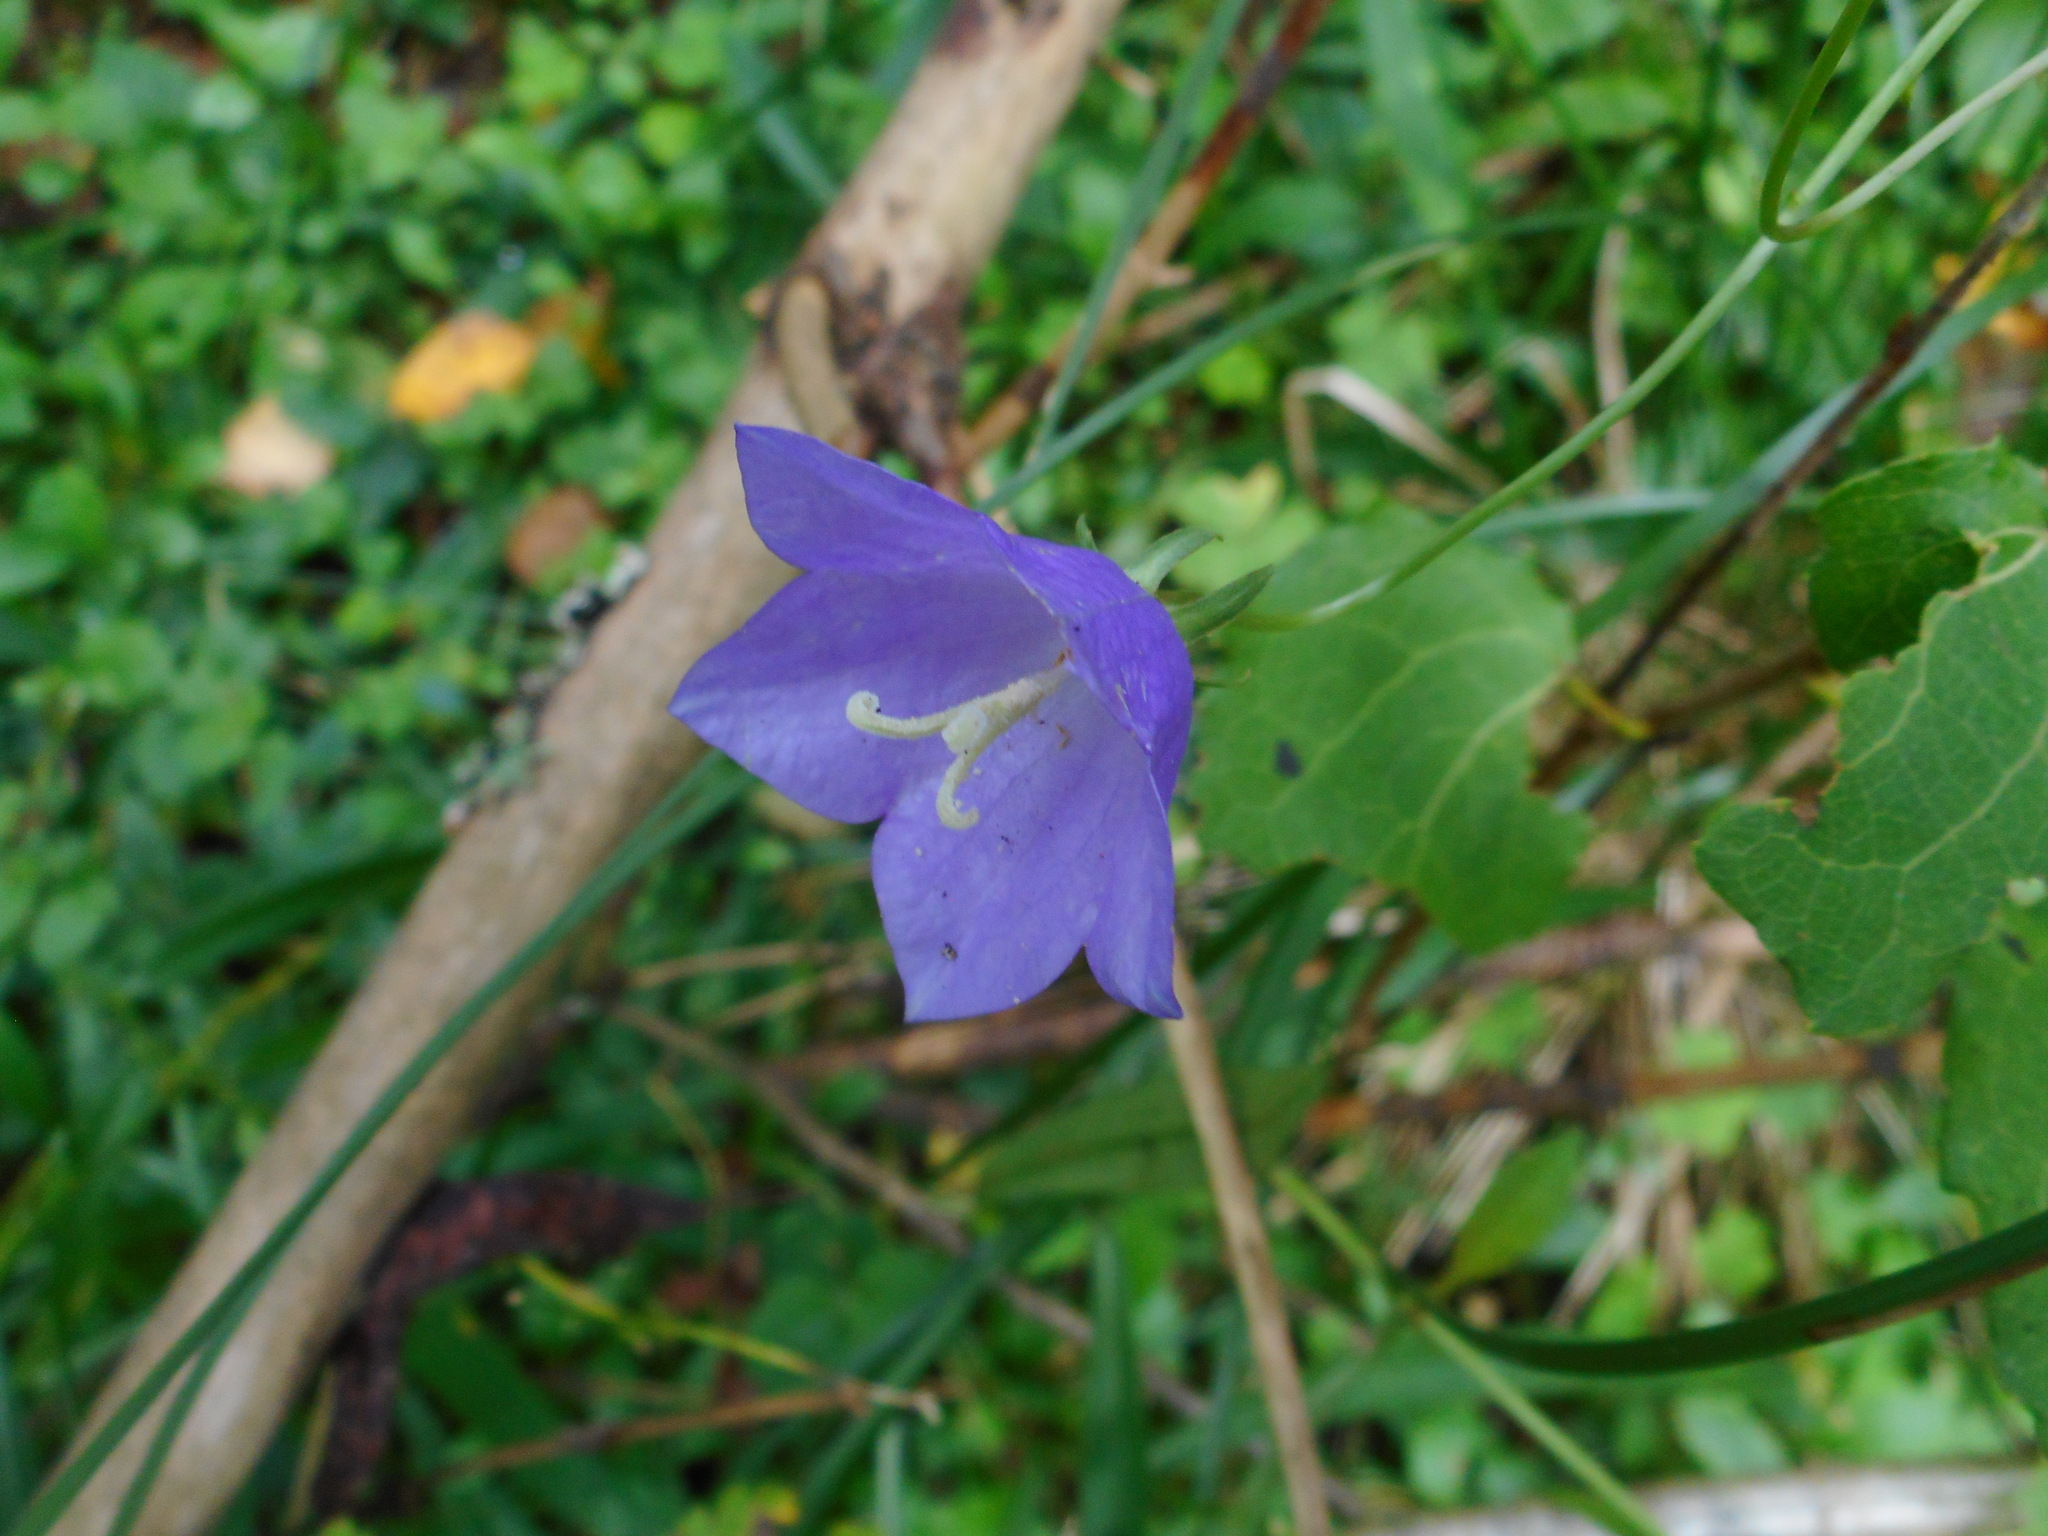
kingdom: Plantae
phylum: Tracheophyta
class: Magnoliopsida
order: Asterales
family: Campanulaceae
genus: Campanula
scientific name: Campanula persicifolia
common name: Peach-leaved bellflower
